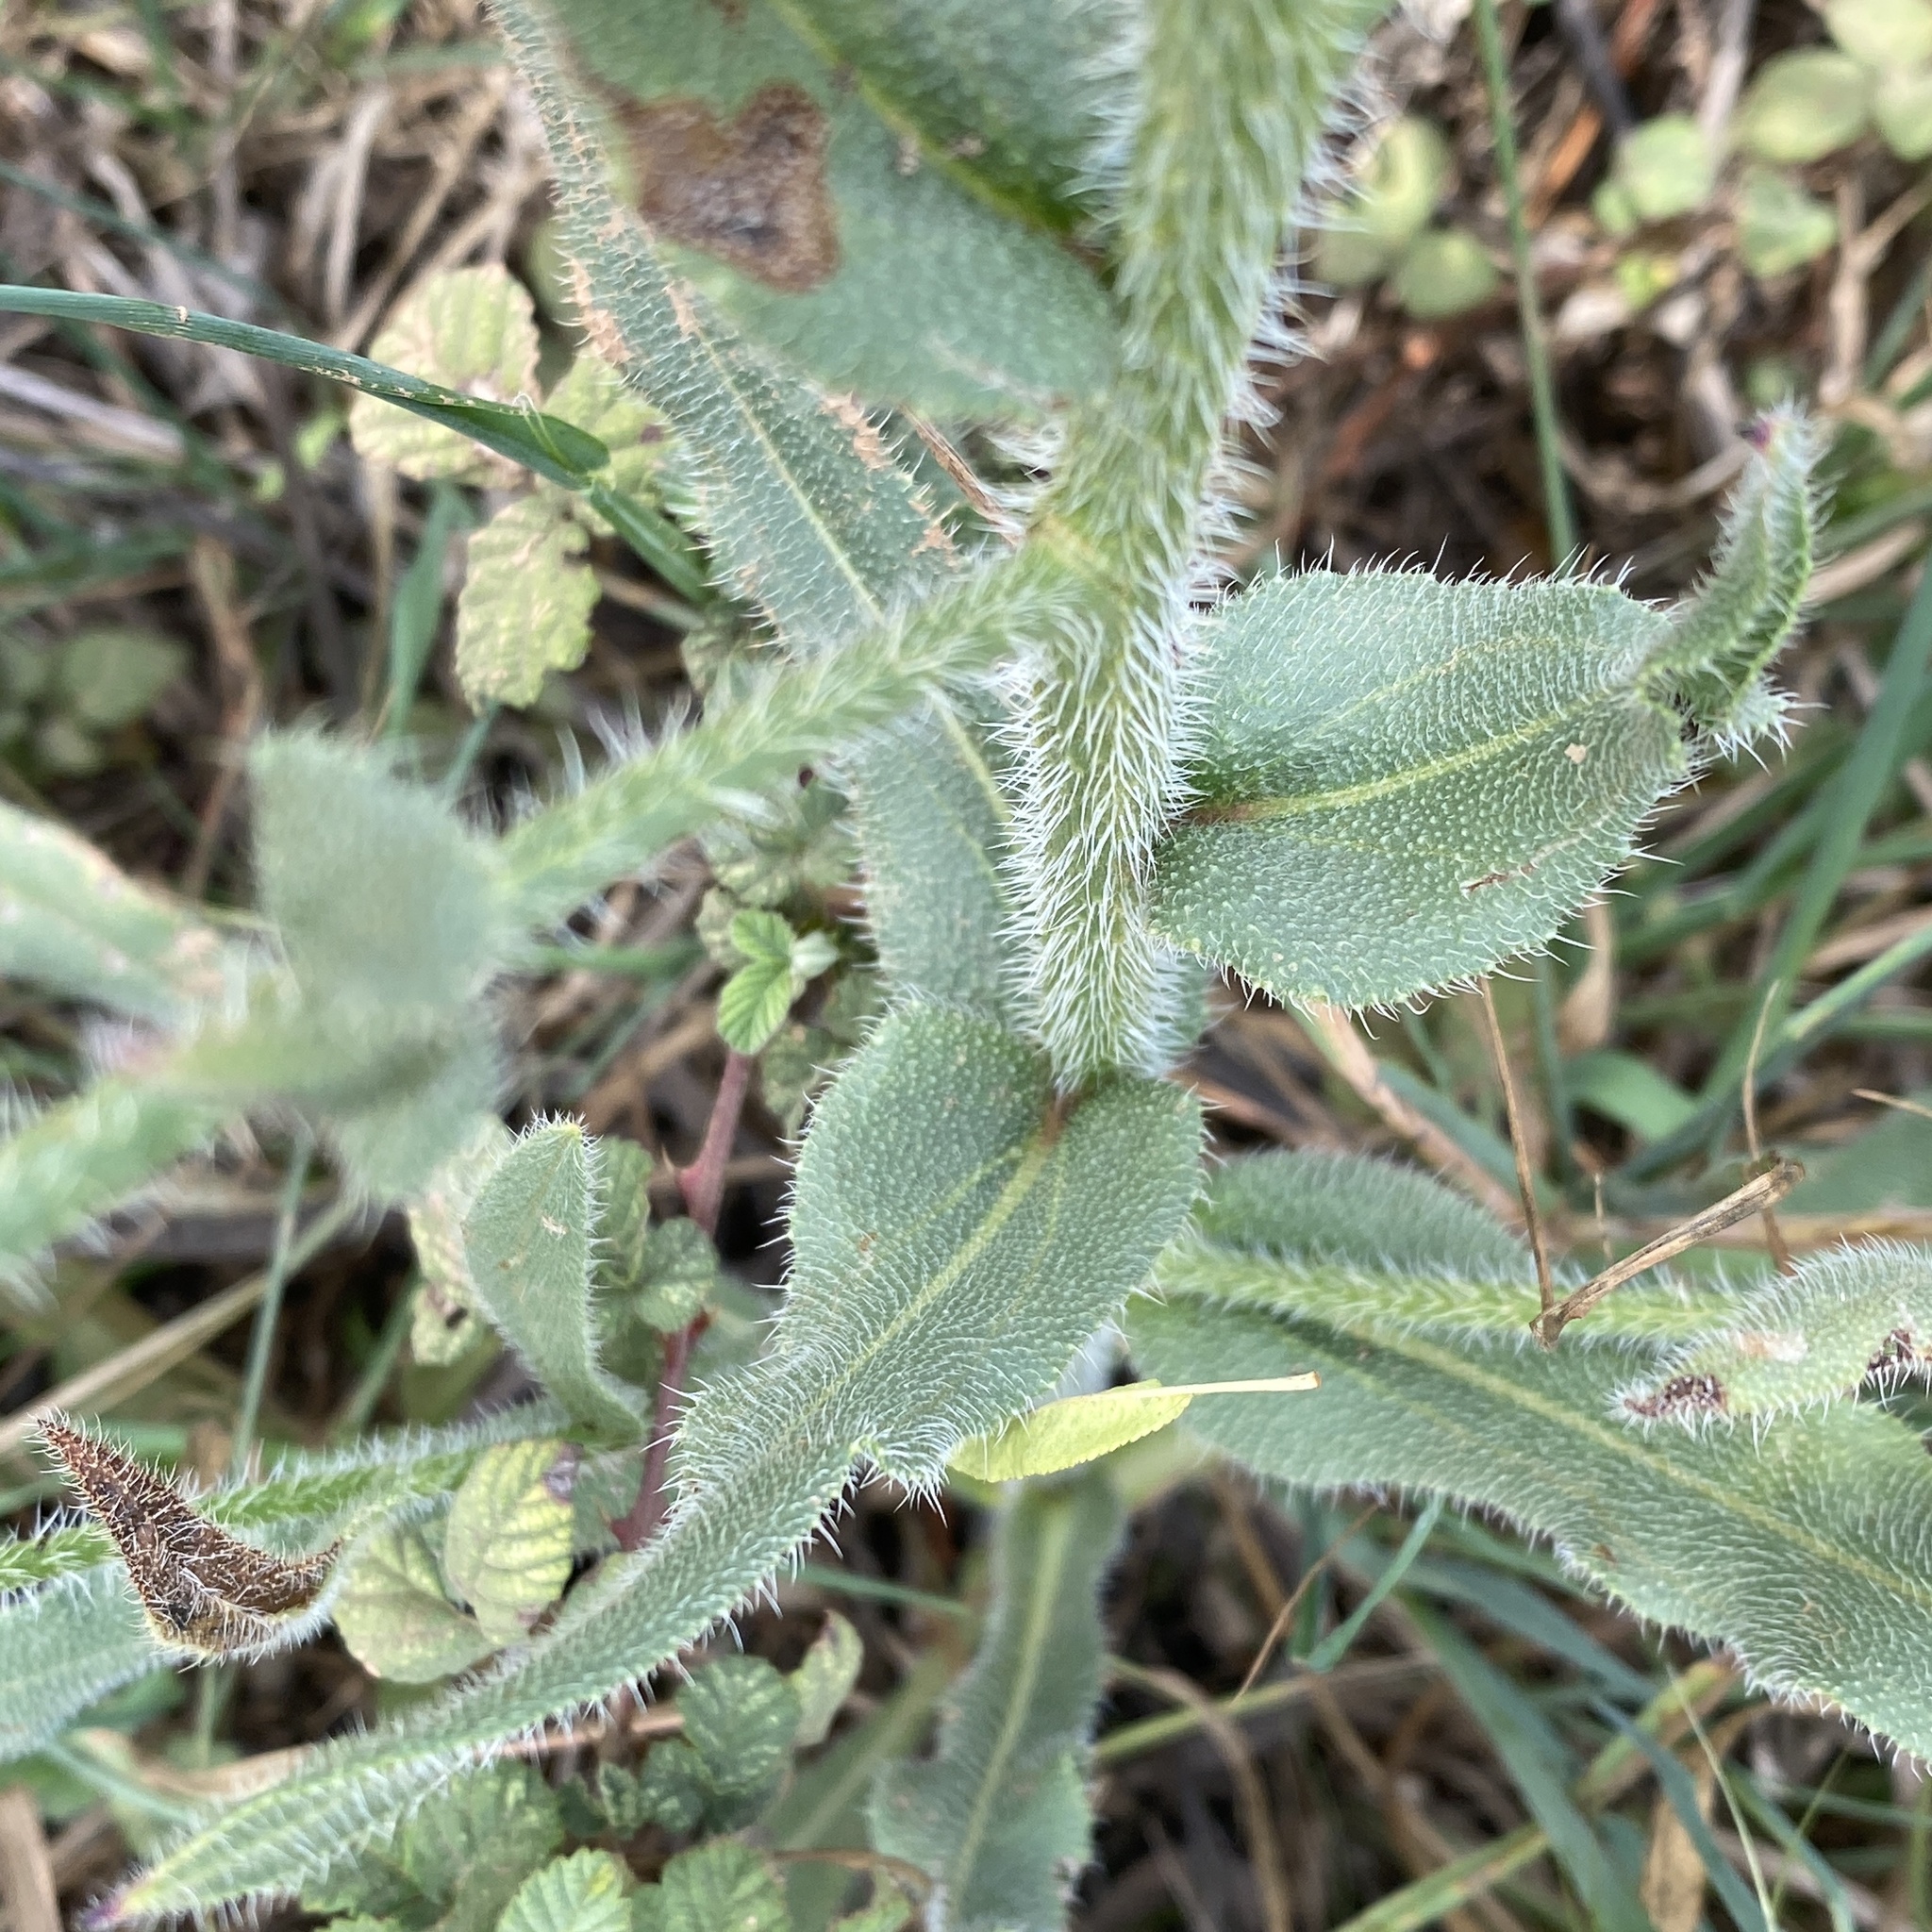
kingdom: Plantae
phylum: Tracheophyta
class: Magnoliopsida
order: Boraginales
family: Boraginaceae
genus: Anchusa
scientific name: Anchusa azurea
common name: Garden anchusa
